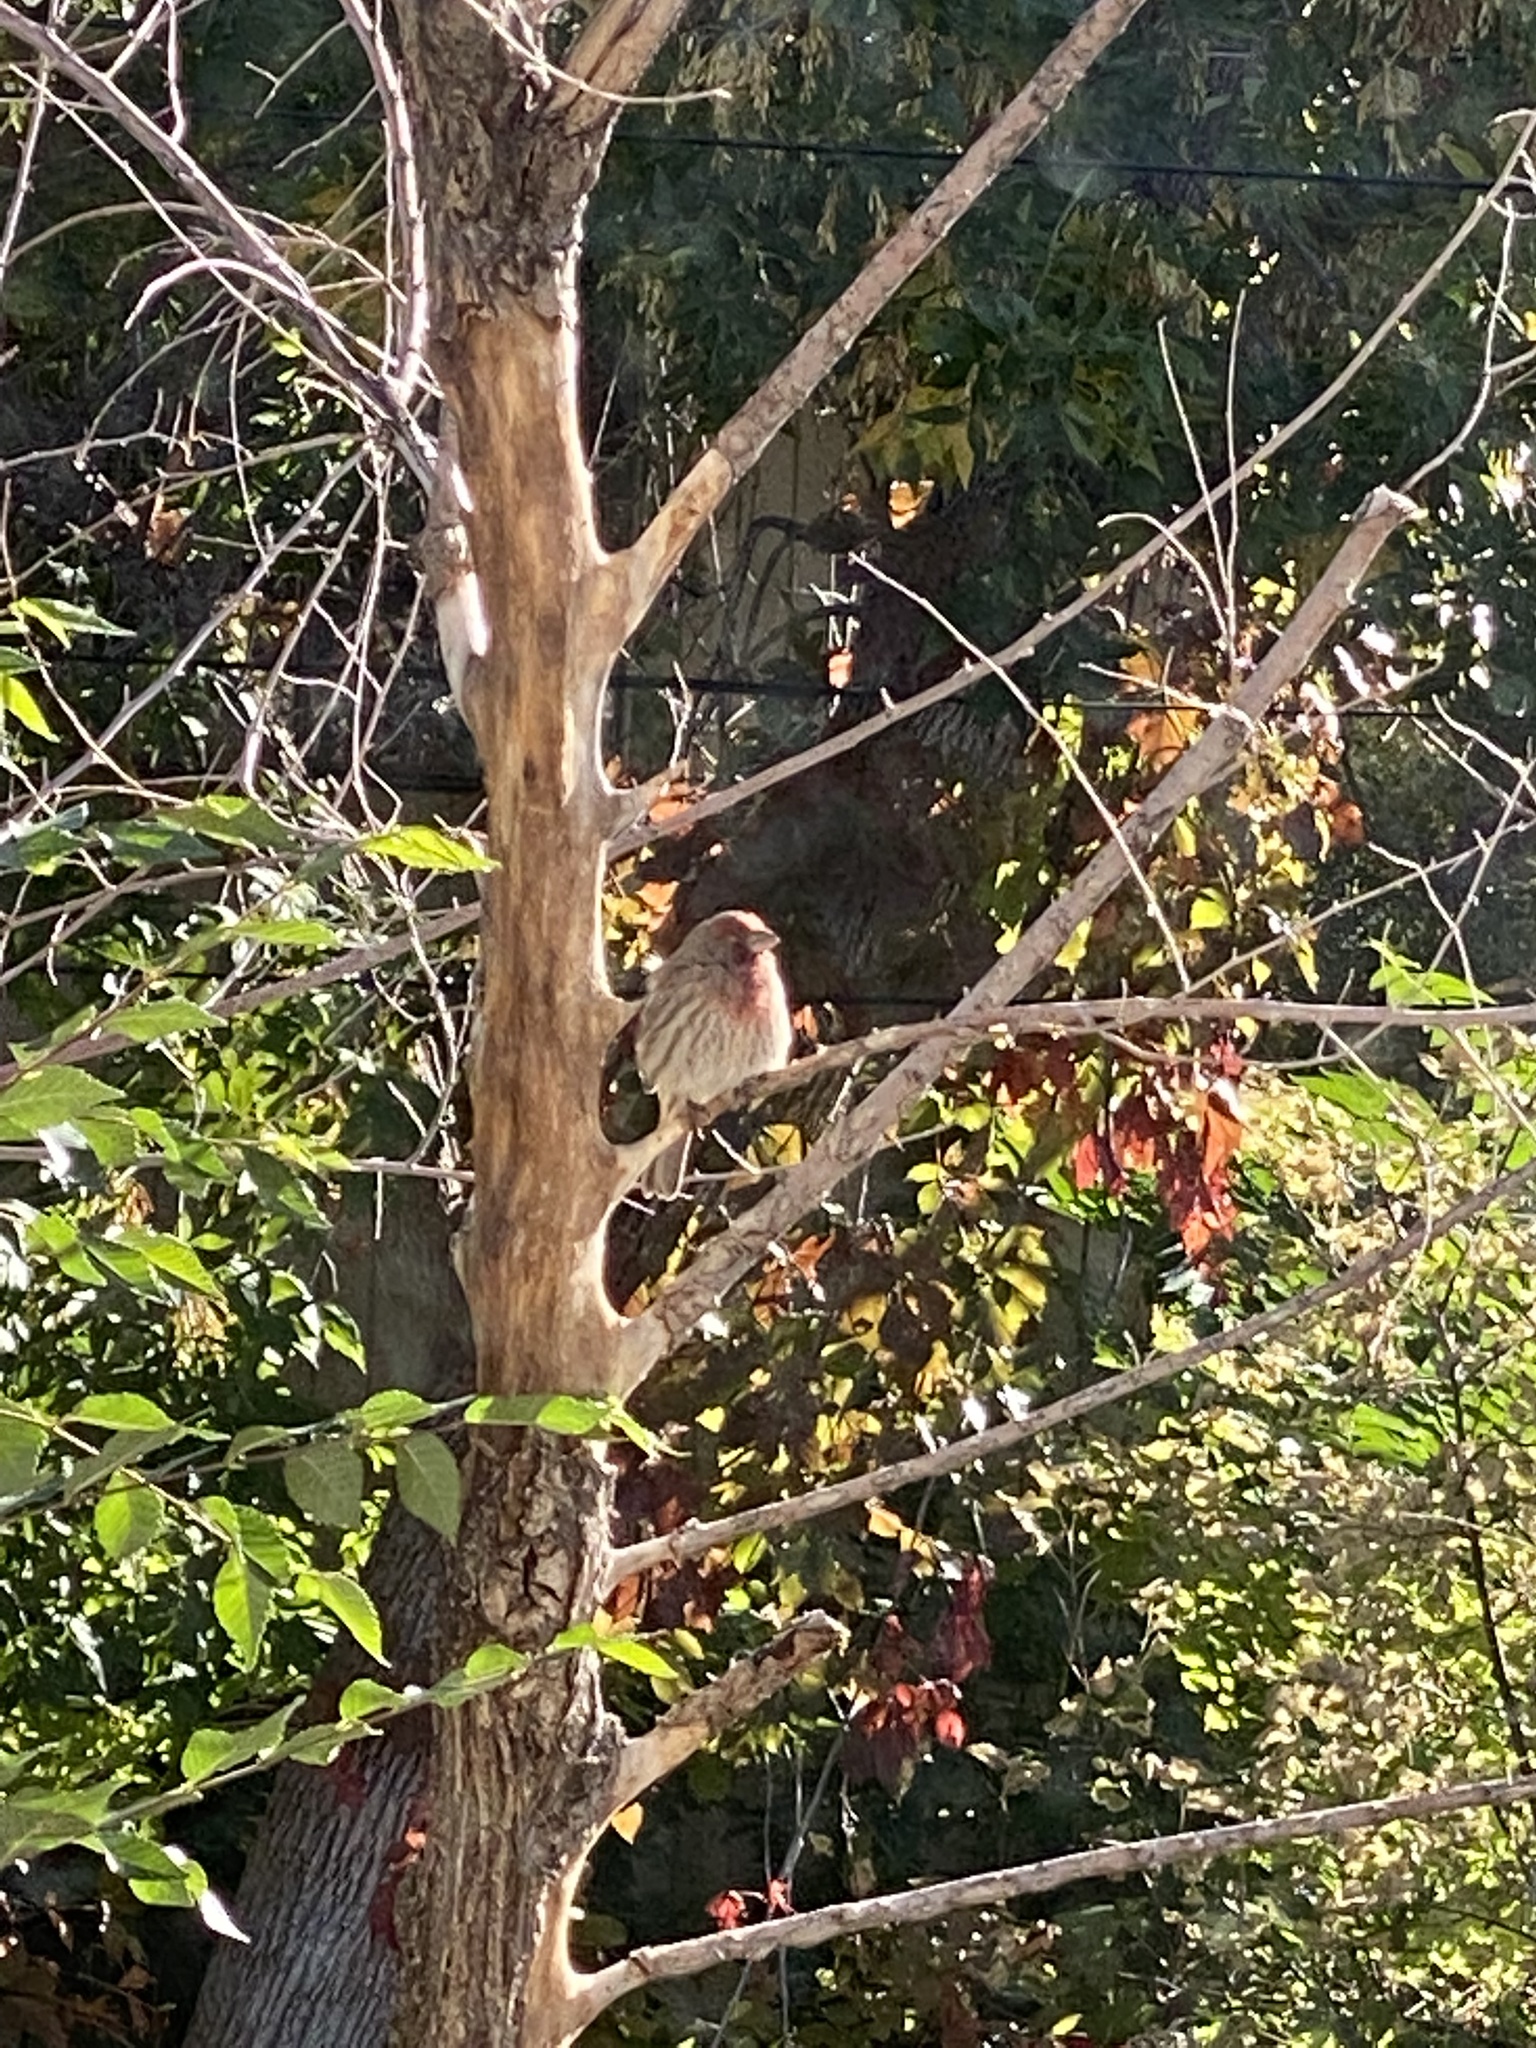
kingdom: Animalia
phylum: Chordata
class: Aves
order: Passeriformes
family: Fringillidae
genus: Haemorhous
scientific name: Haemorhous mexicanus
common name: House finch
